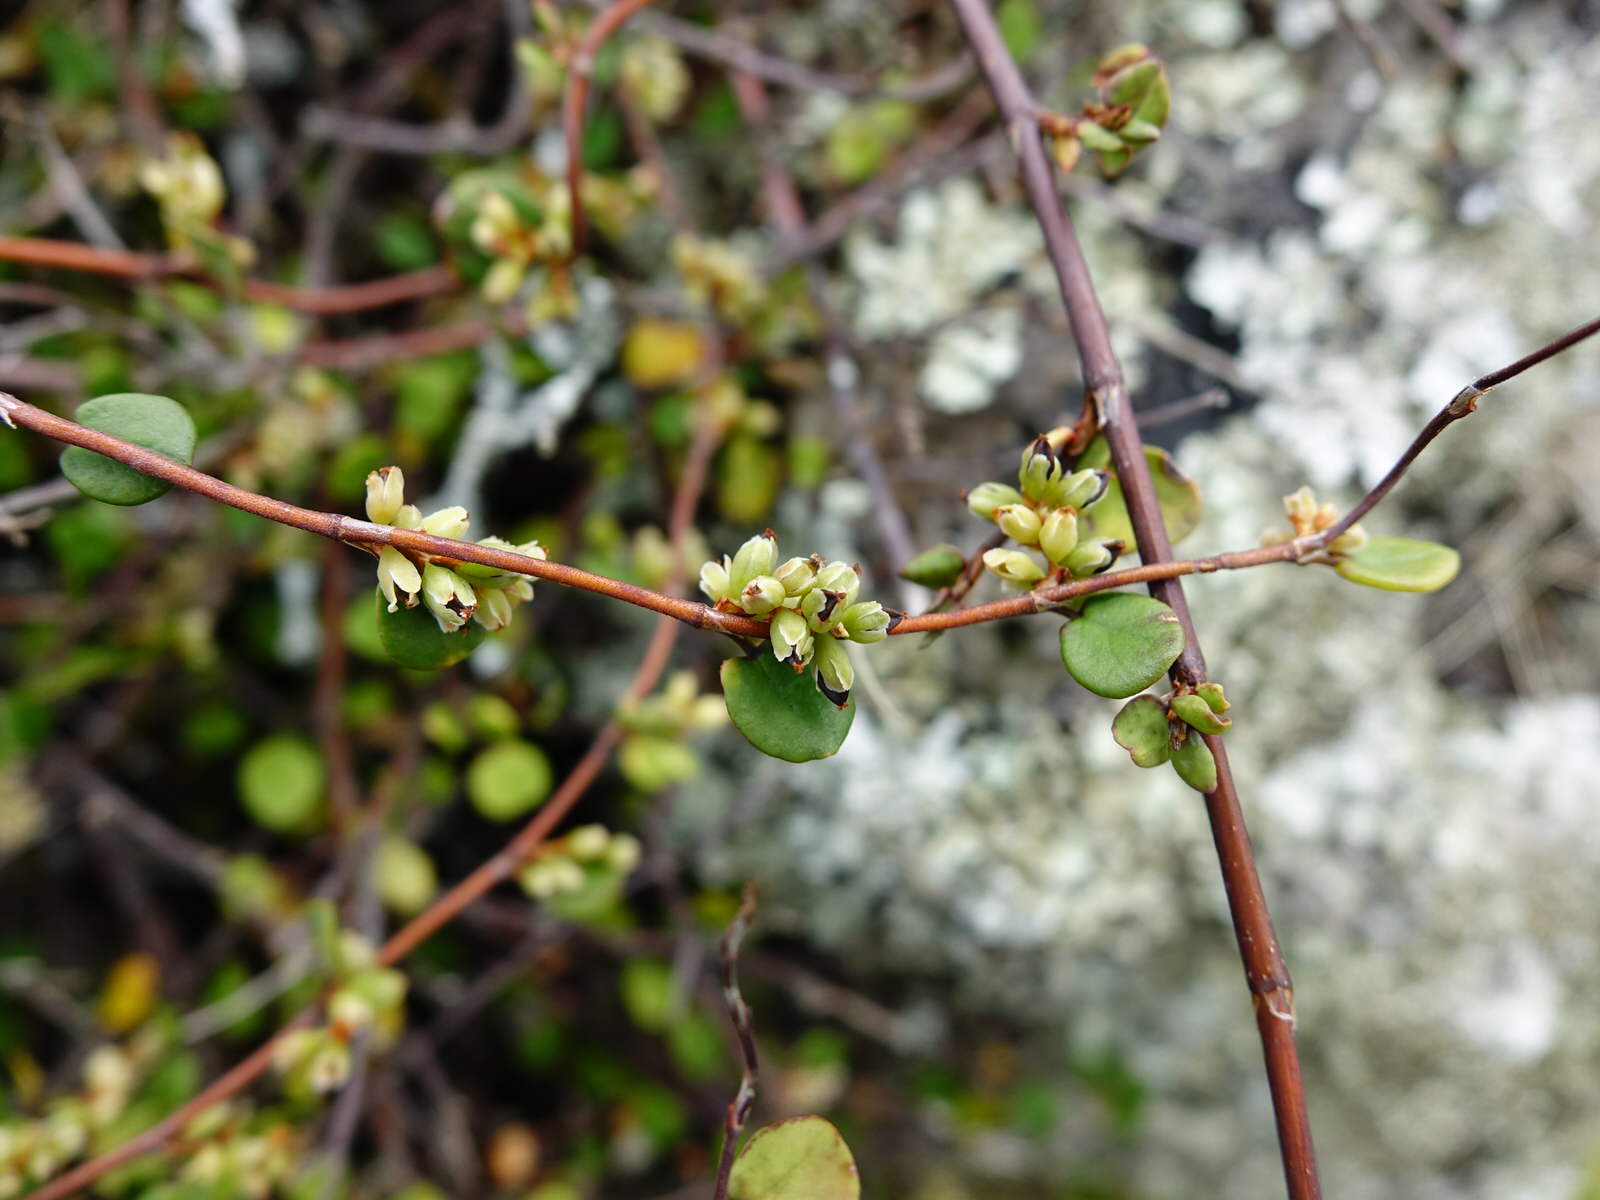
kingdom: Plantae
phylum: Tracheophyta
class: Magnoliopsida
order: Caryophyllales
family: Polygonaceae
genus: Muehlenbeckia
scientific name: Muehlenbeckia complexa
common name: Wireplant
